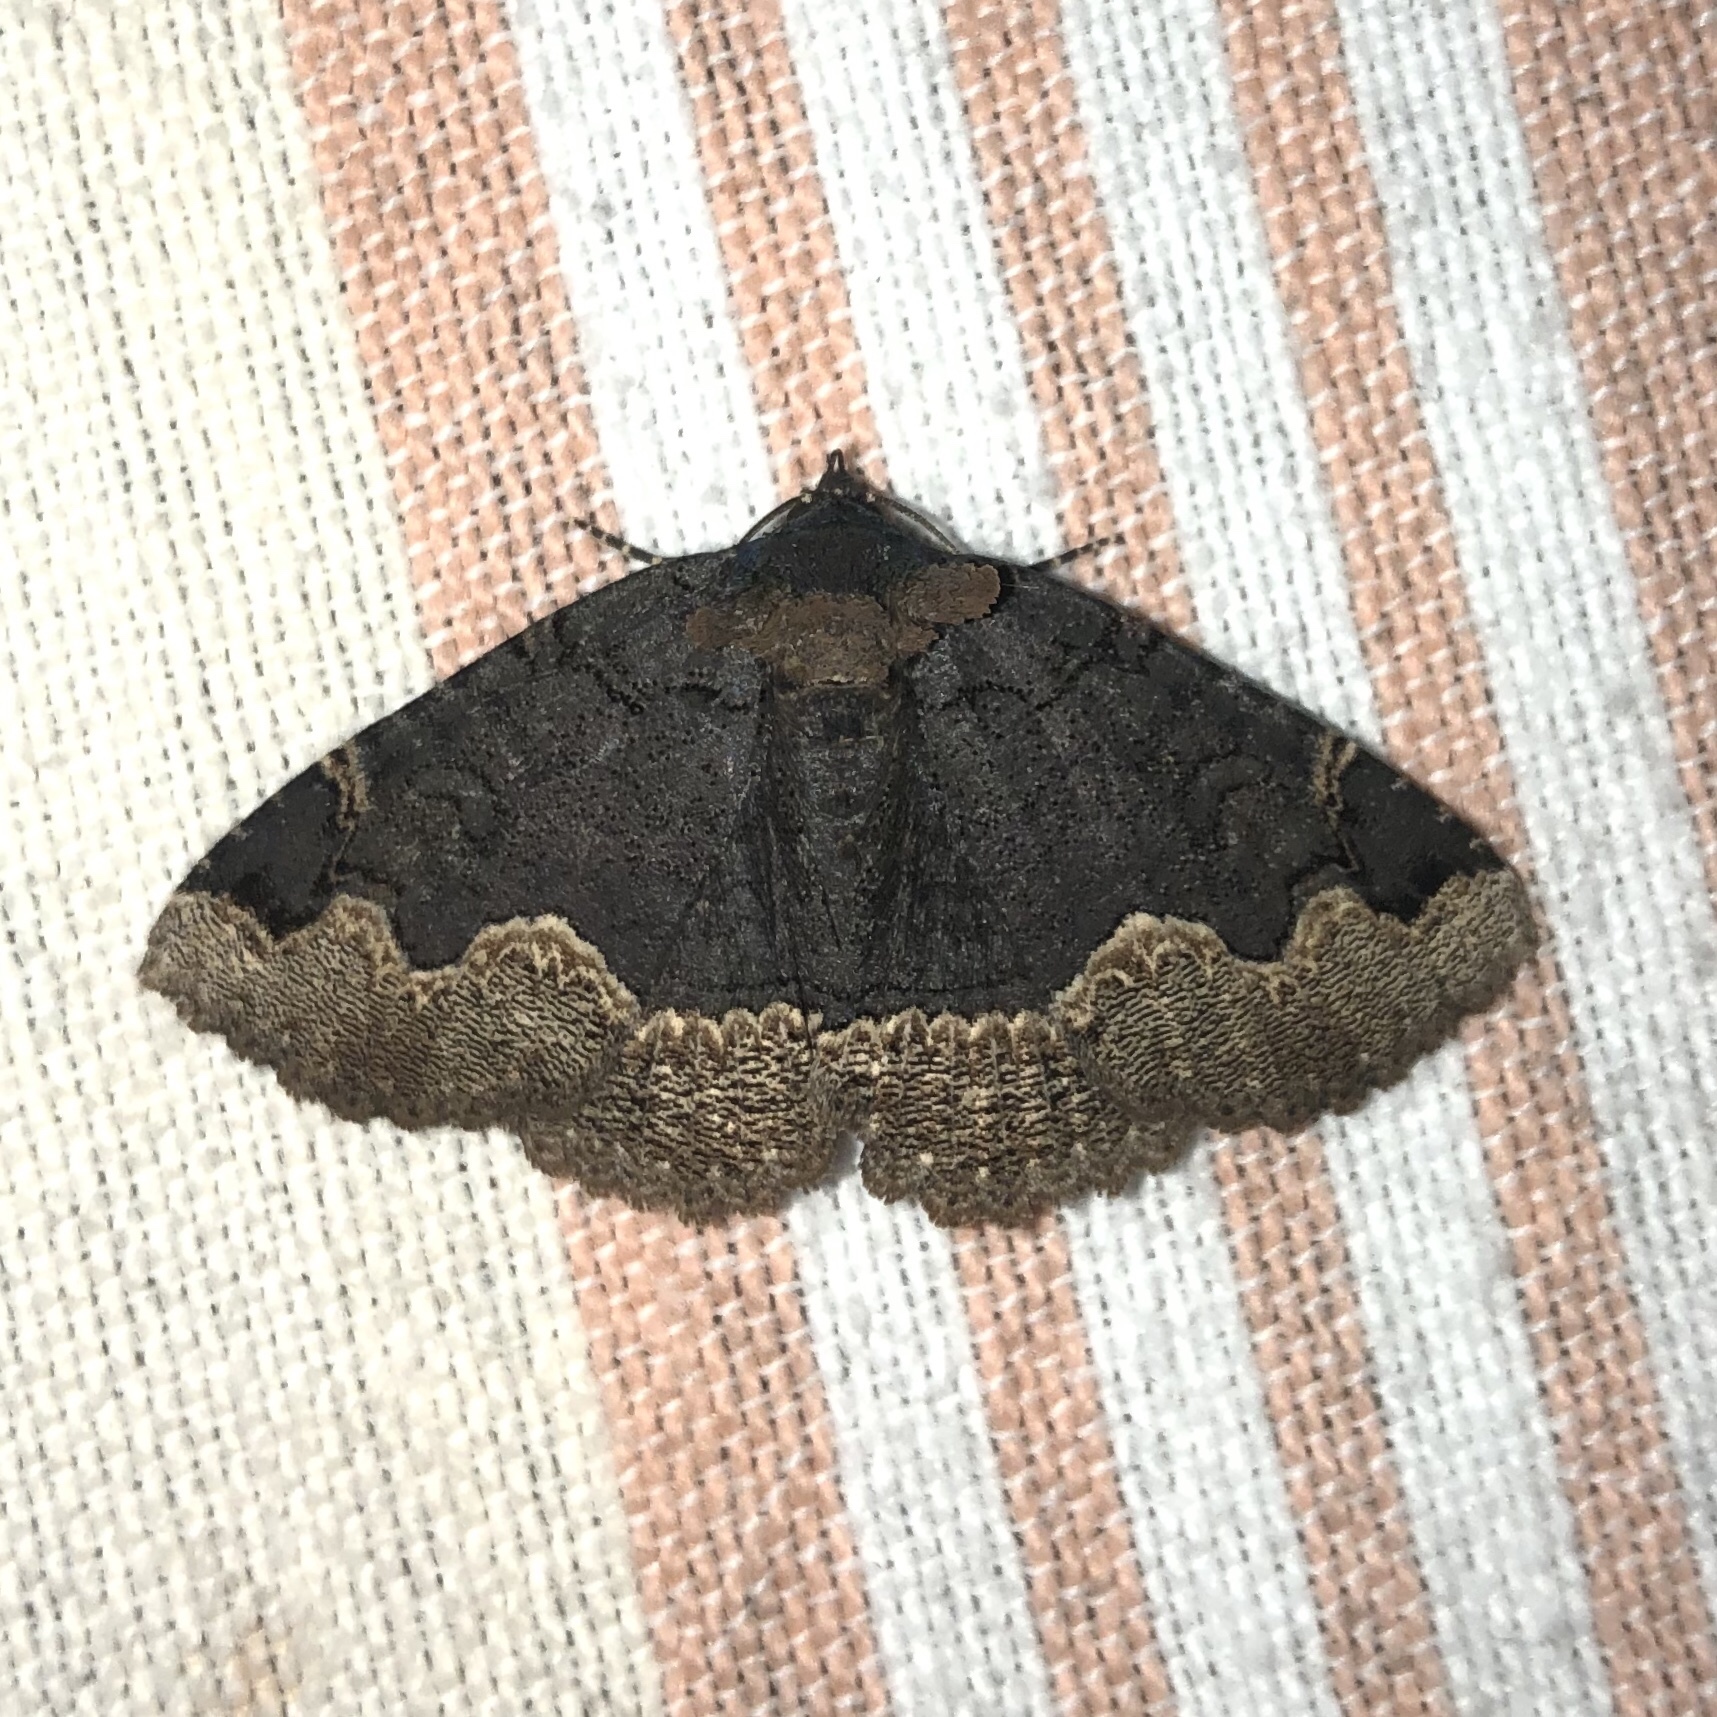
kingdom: Animalia
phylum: Arthropoda
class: Insecta
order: Lepidoptera
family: Erebidae
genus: Zale
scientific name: Zale horrida
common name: Horrid zale moth
